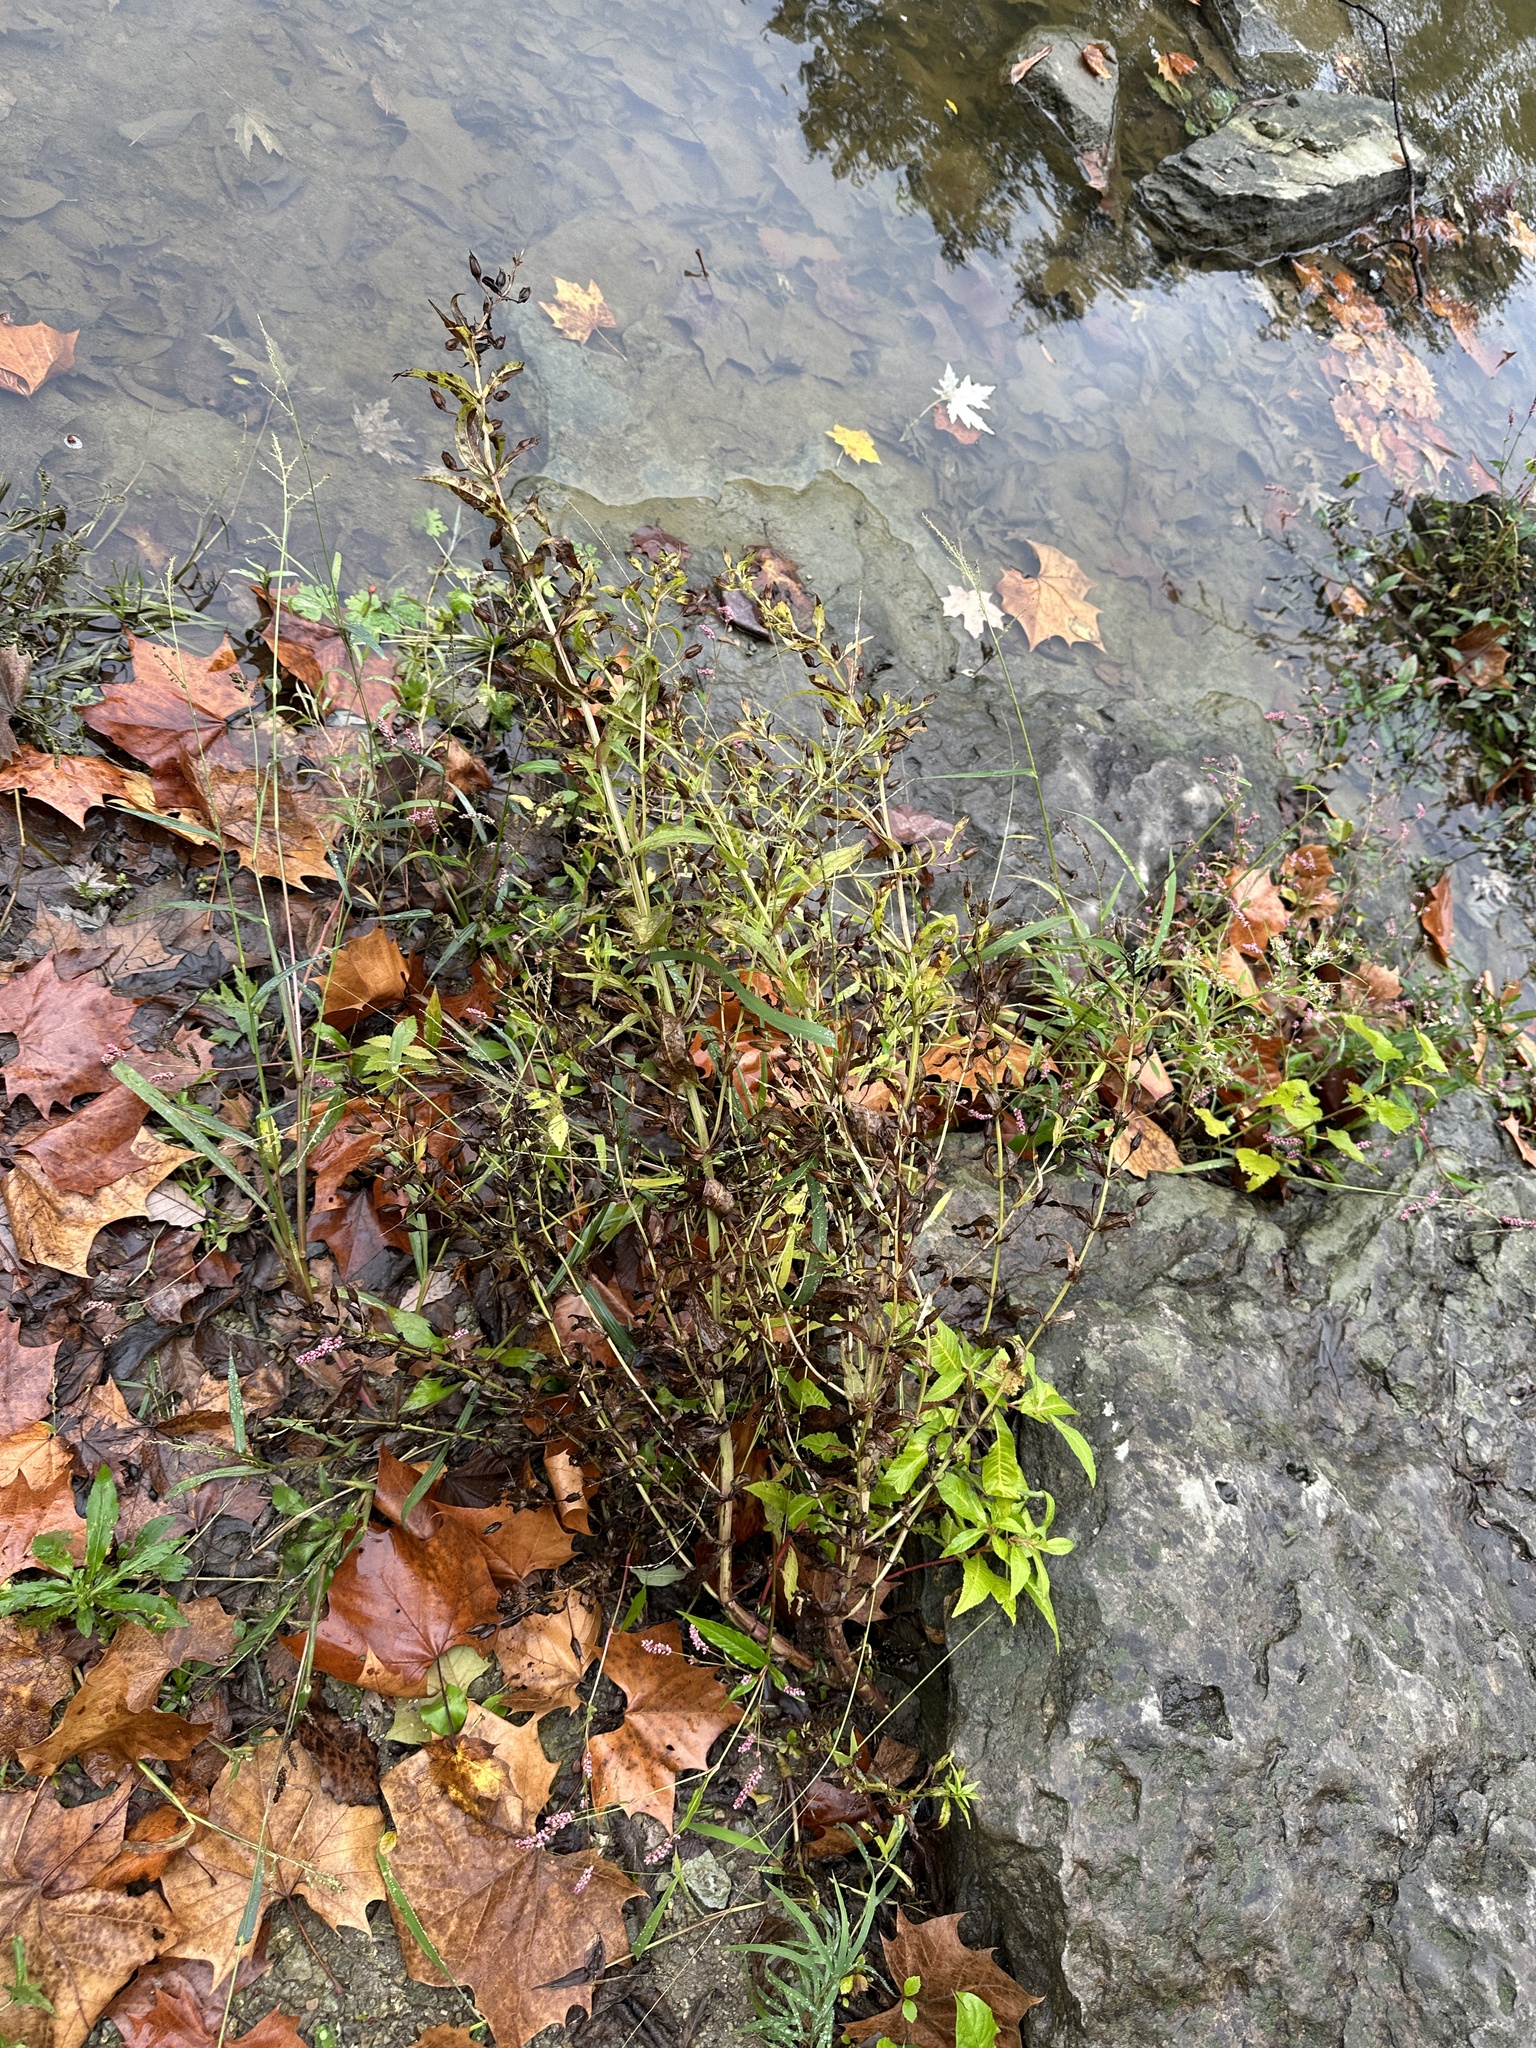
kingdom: Plantae
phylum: Tracheophyta
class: Magnoliopsida
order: Lamiales
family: Phrymaceae
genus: Mimulus
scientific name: Mimulus ringens
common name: Allegheny monkeyflower
